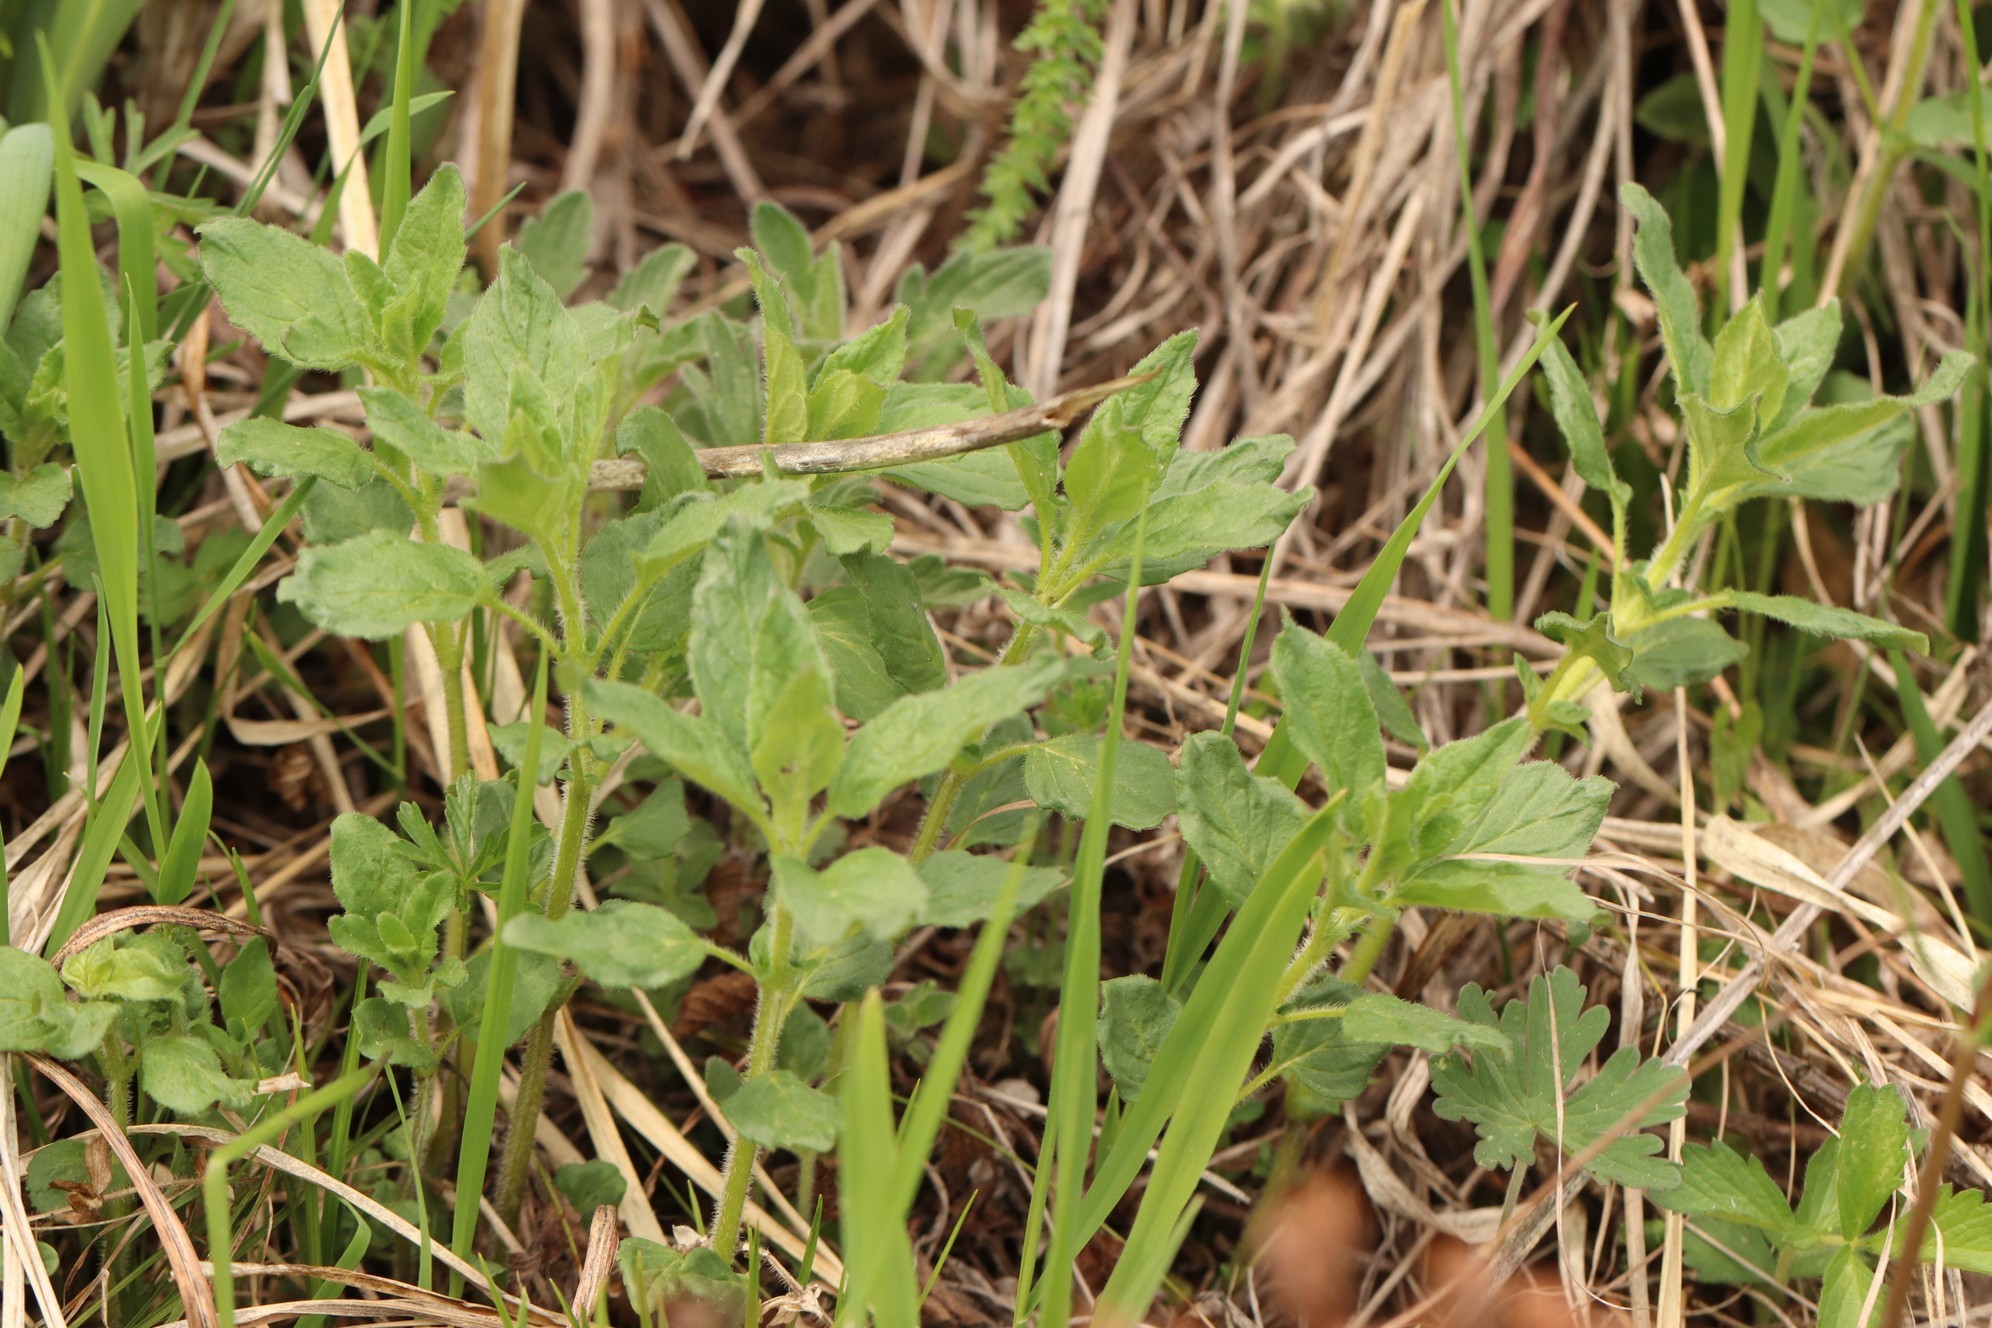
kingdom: Plantae
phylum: Tracheophyta
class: Magnoliopsida
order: Lamiales
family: Lamiaceae
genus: Origanum
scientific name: Origanum vulgare
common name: Wild marjoram
